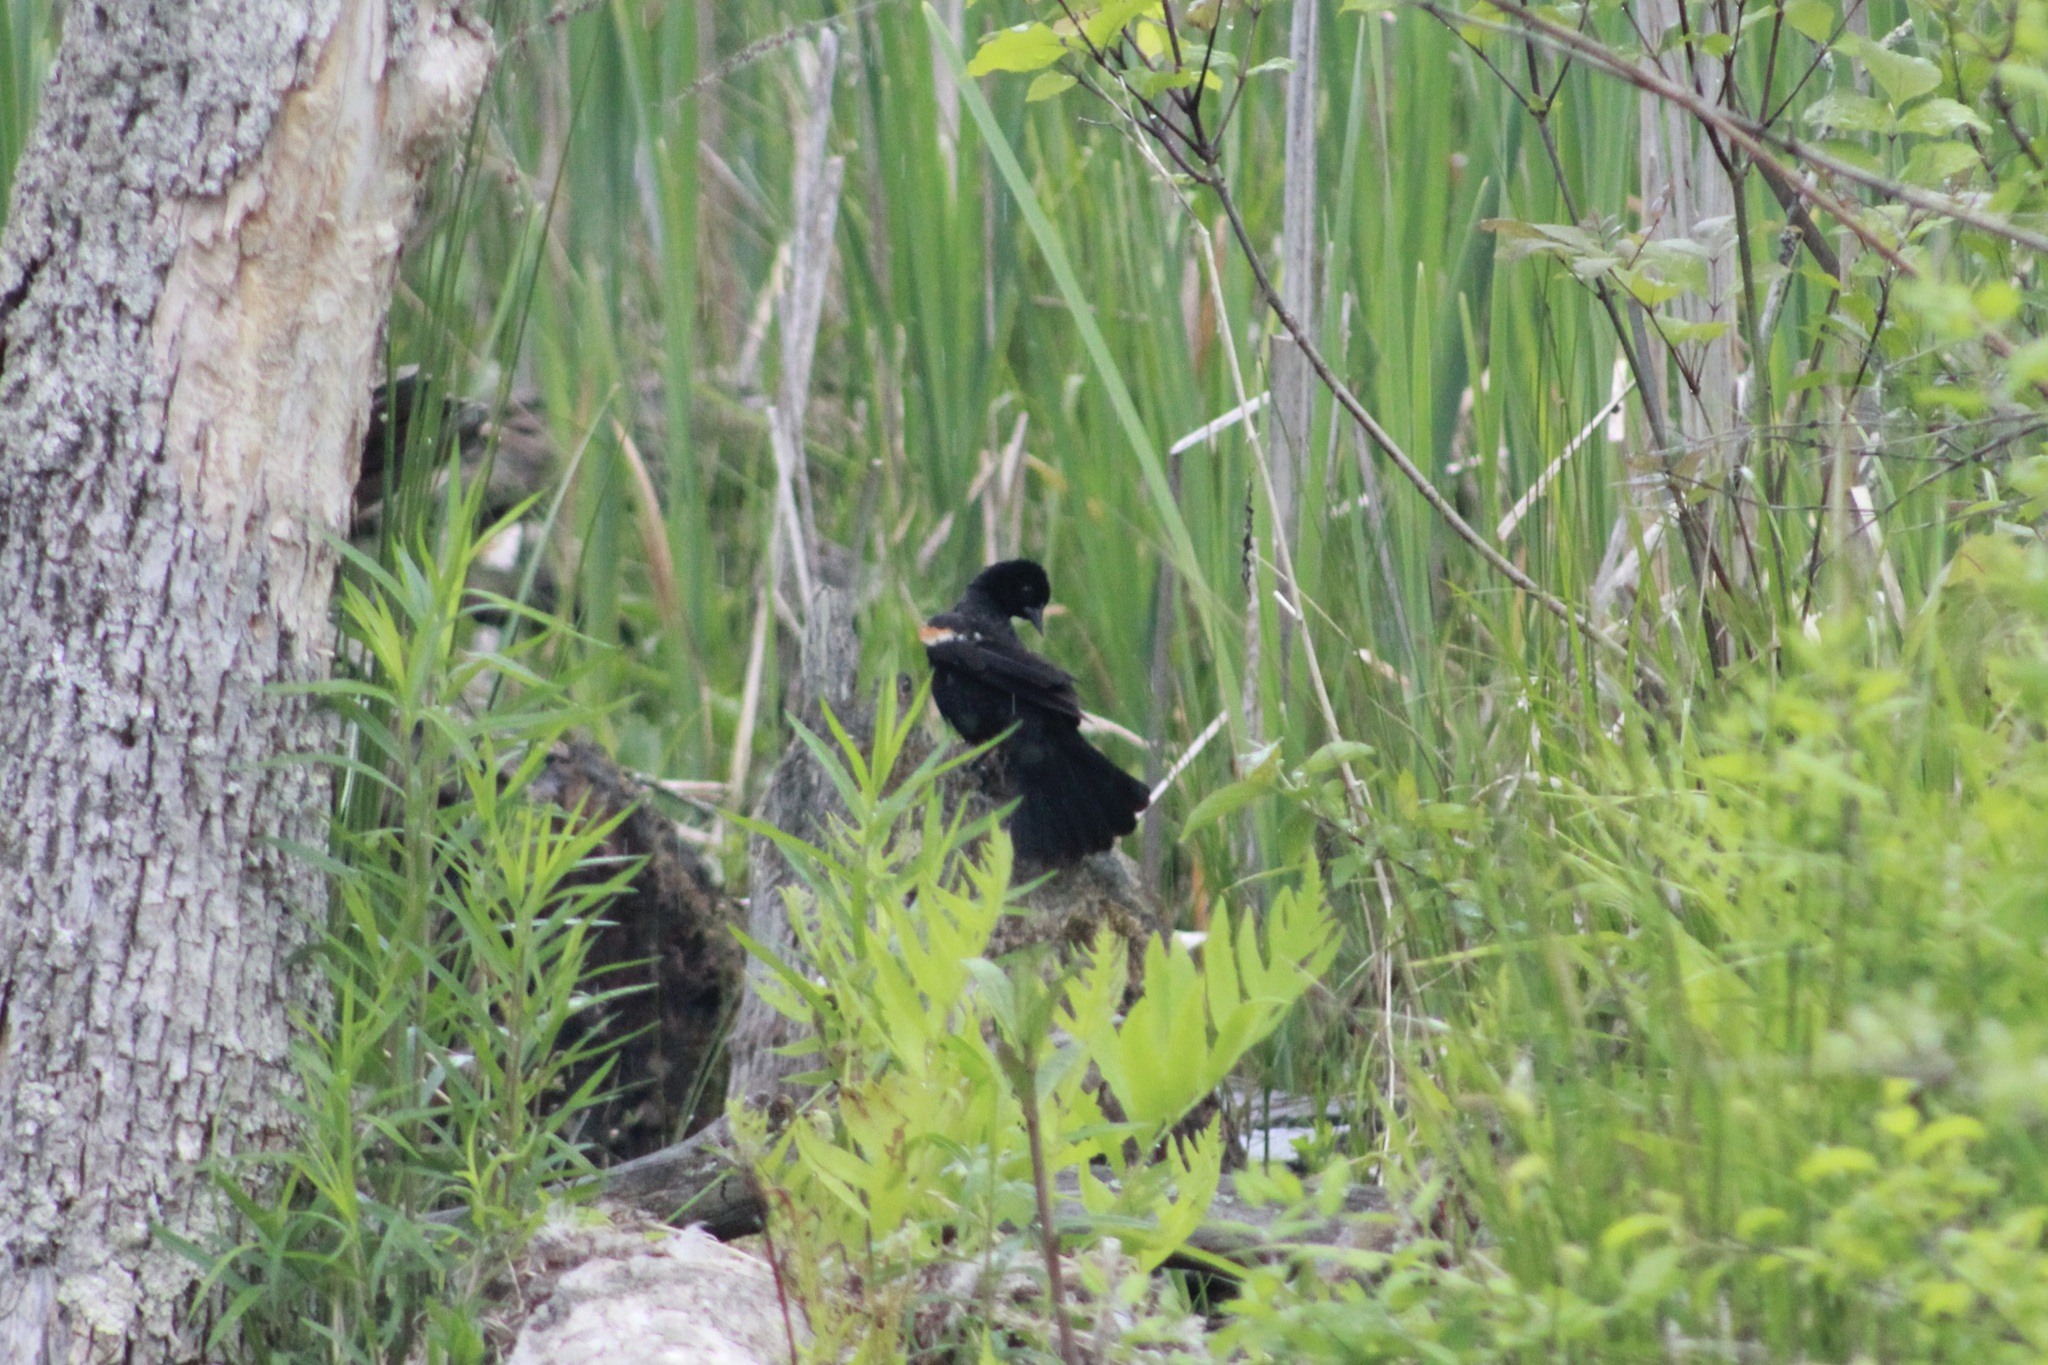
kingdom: Animalia
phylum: Chordata
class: Aves
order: Passeriformes
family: Icteridae
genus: Agelaius
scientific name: Agelaius phoeniceus
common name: Red-winged blackbird
